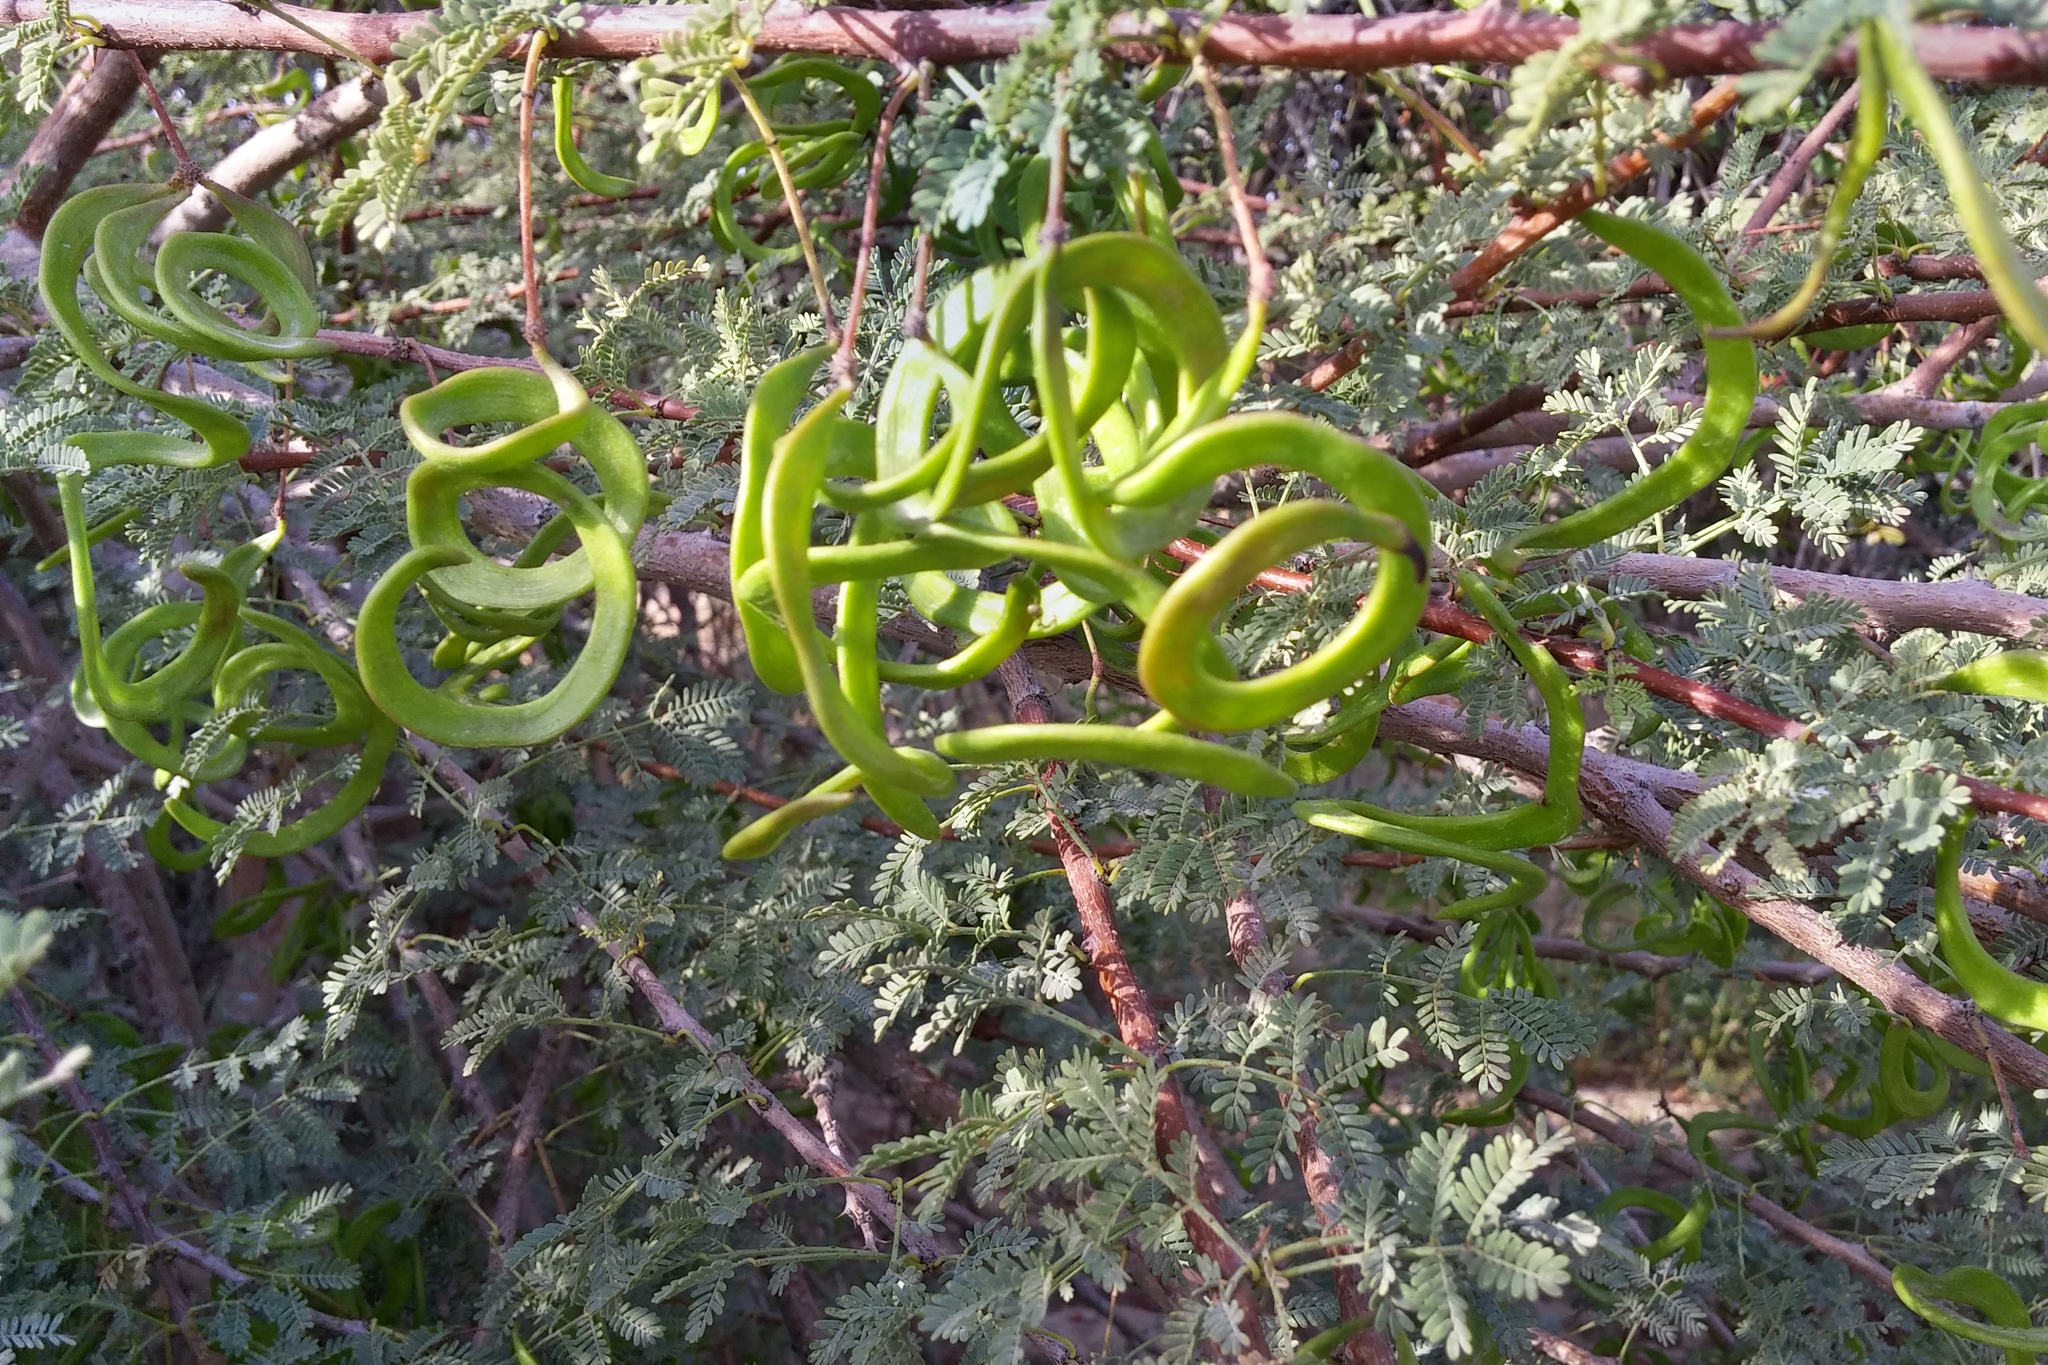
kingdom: Plantae
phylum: Tracheophyta
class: Magnoliopsida
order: Fabales
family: Fabaceae
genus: Vachellia
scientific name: Vachellia tortilis
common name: Umbrella thorn acacia
